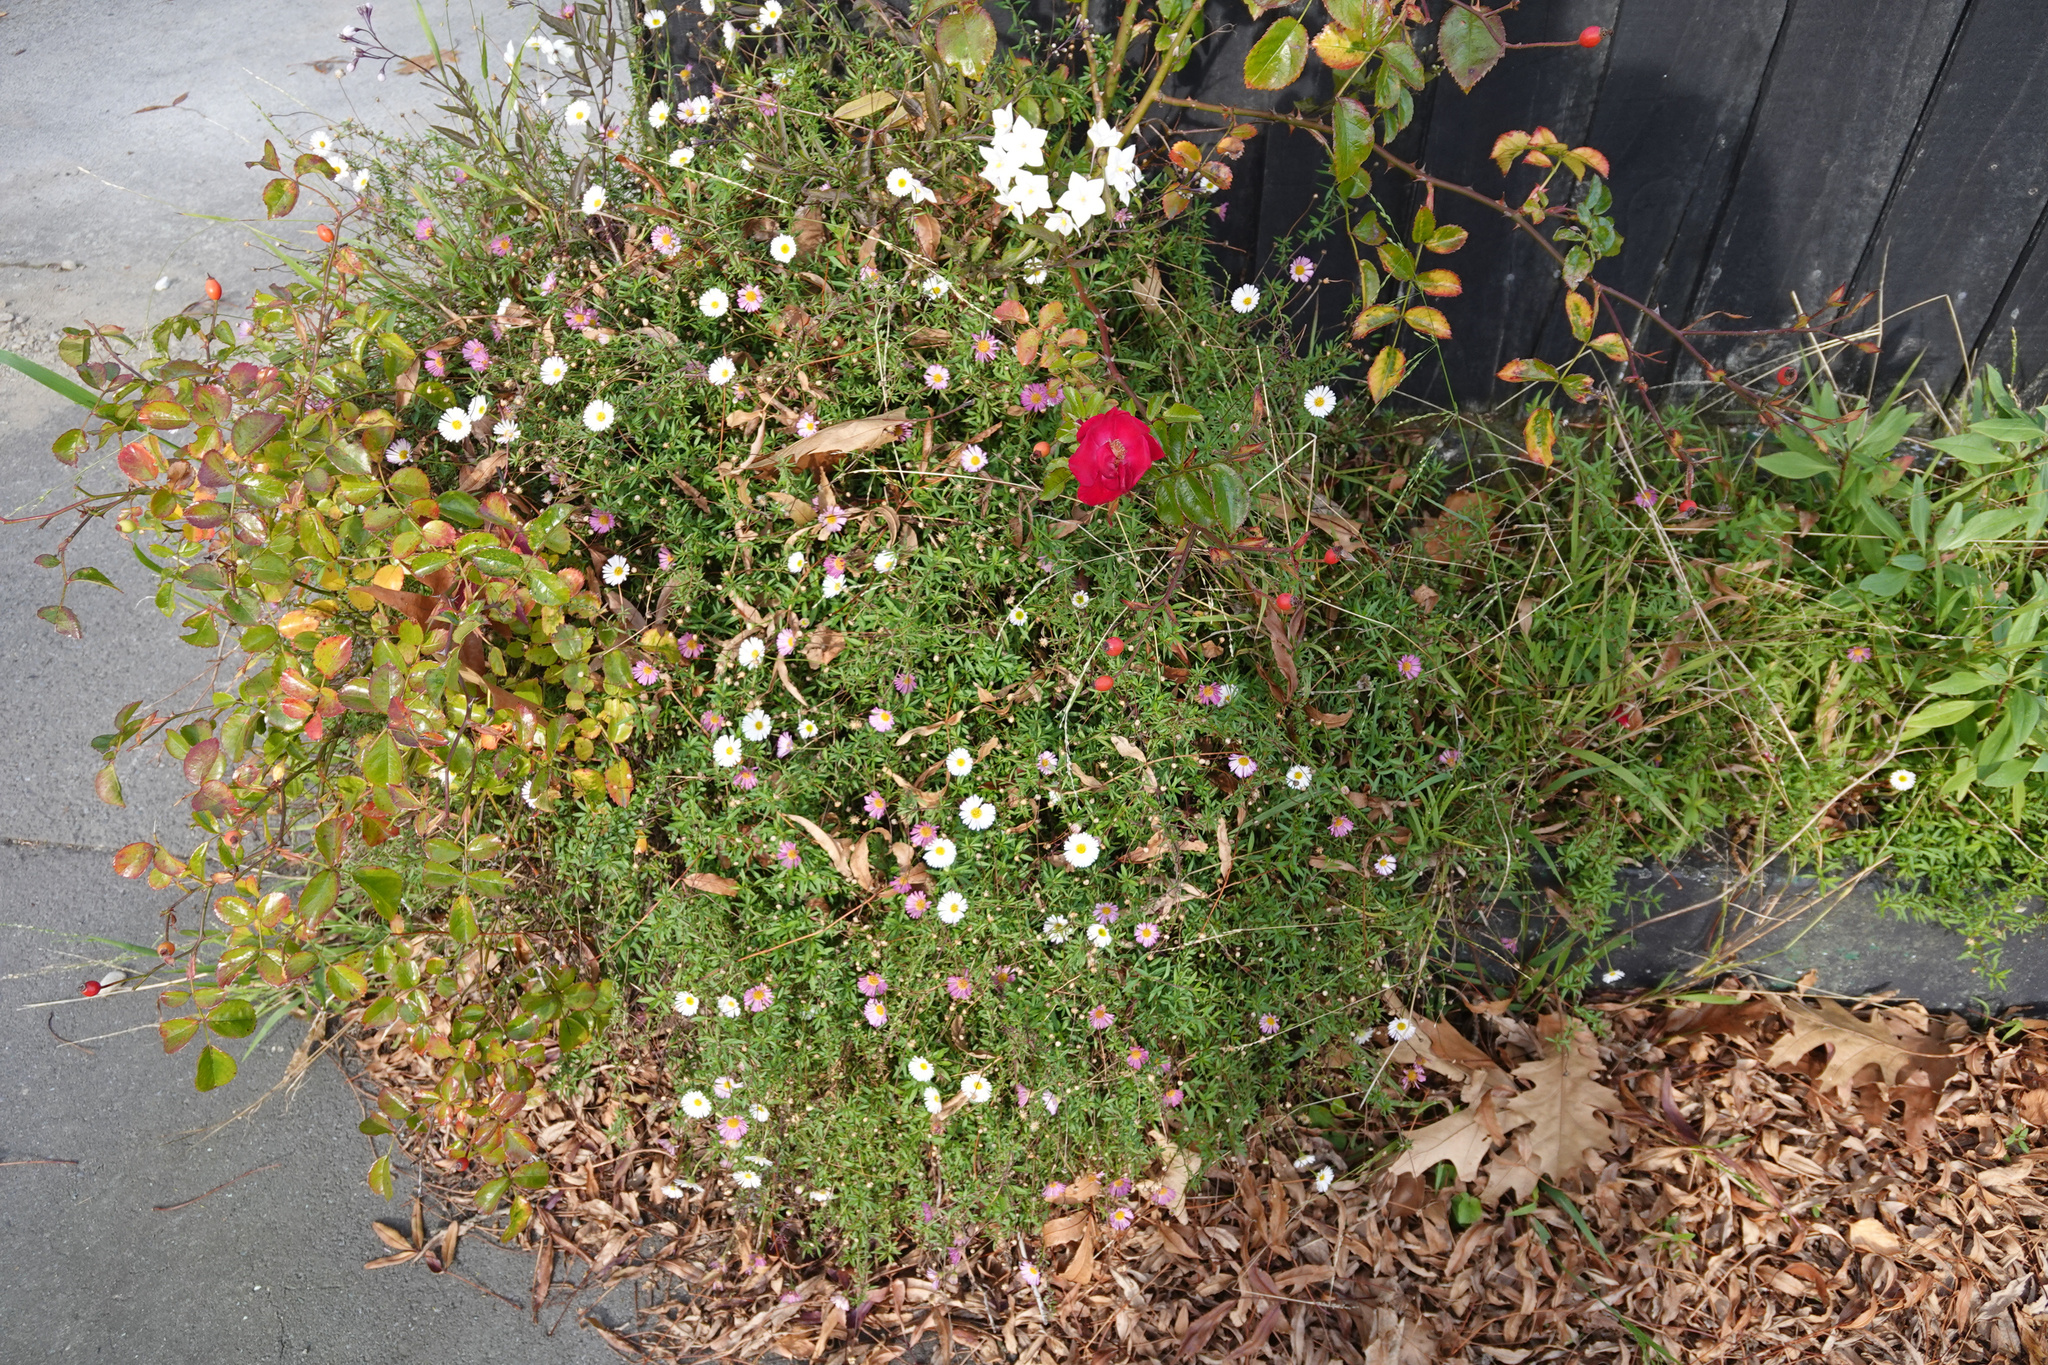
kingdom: Plantae
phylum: Tracheophyta
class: Magnoliopsida
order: Asterales
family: Asteraceae
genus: Erigeron
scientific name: Erigeron karvinskianus
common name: Mexican fleabane
